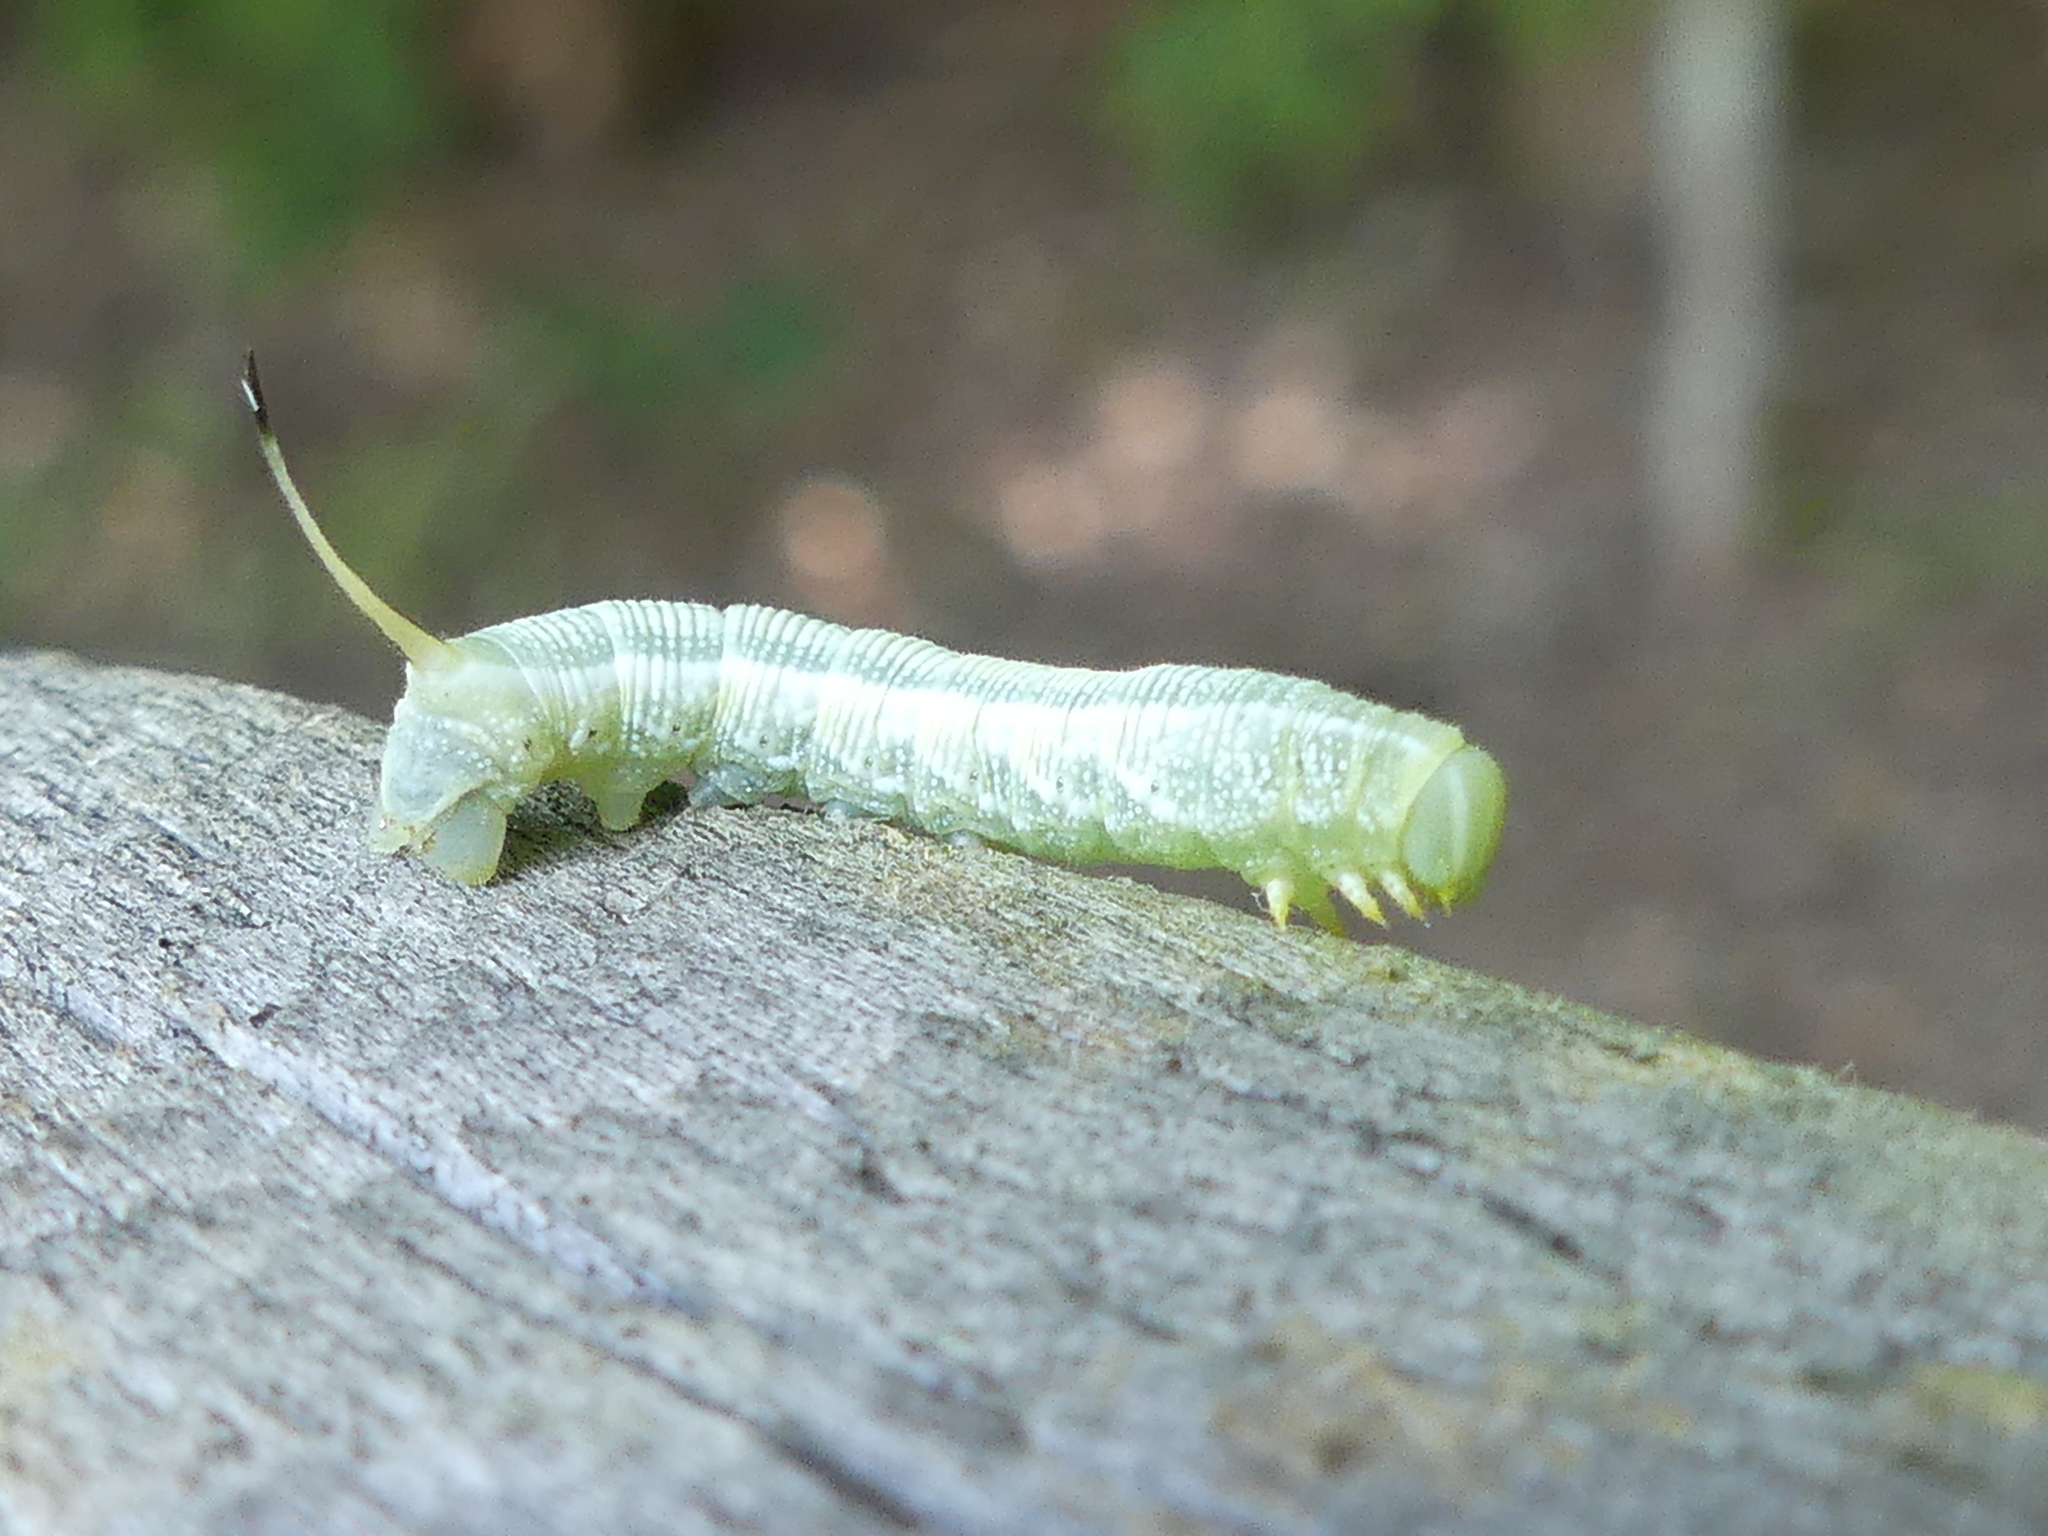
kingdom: Animalia
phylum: Arthropoda
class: Insecta
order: Lepidoptera
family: Sphingidae
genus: Deidamia
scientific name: Deidamia inscriptum
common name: Lettered sphinx
